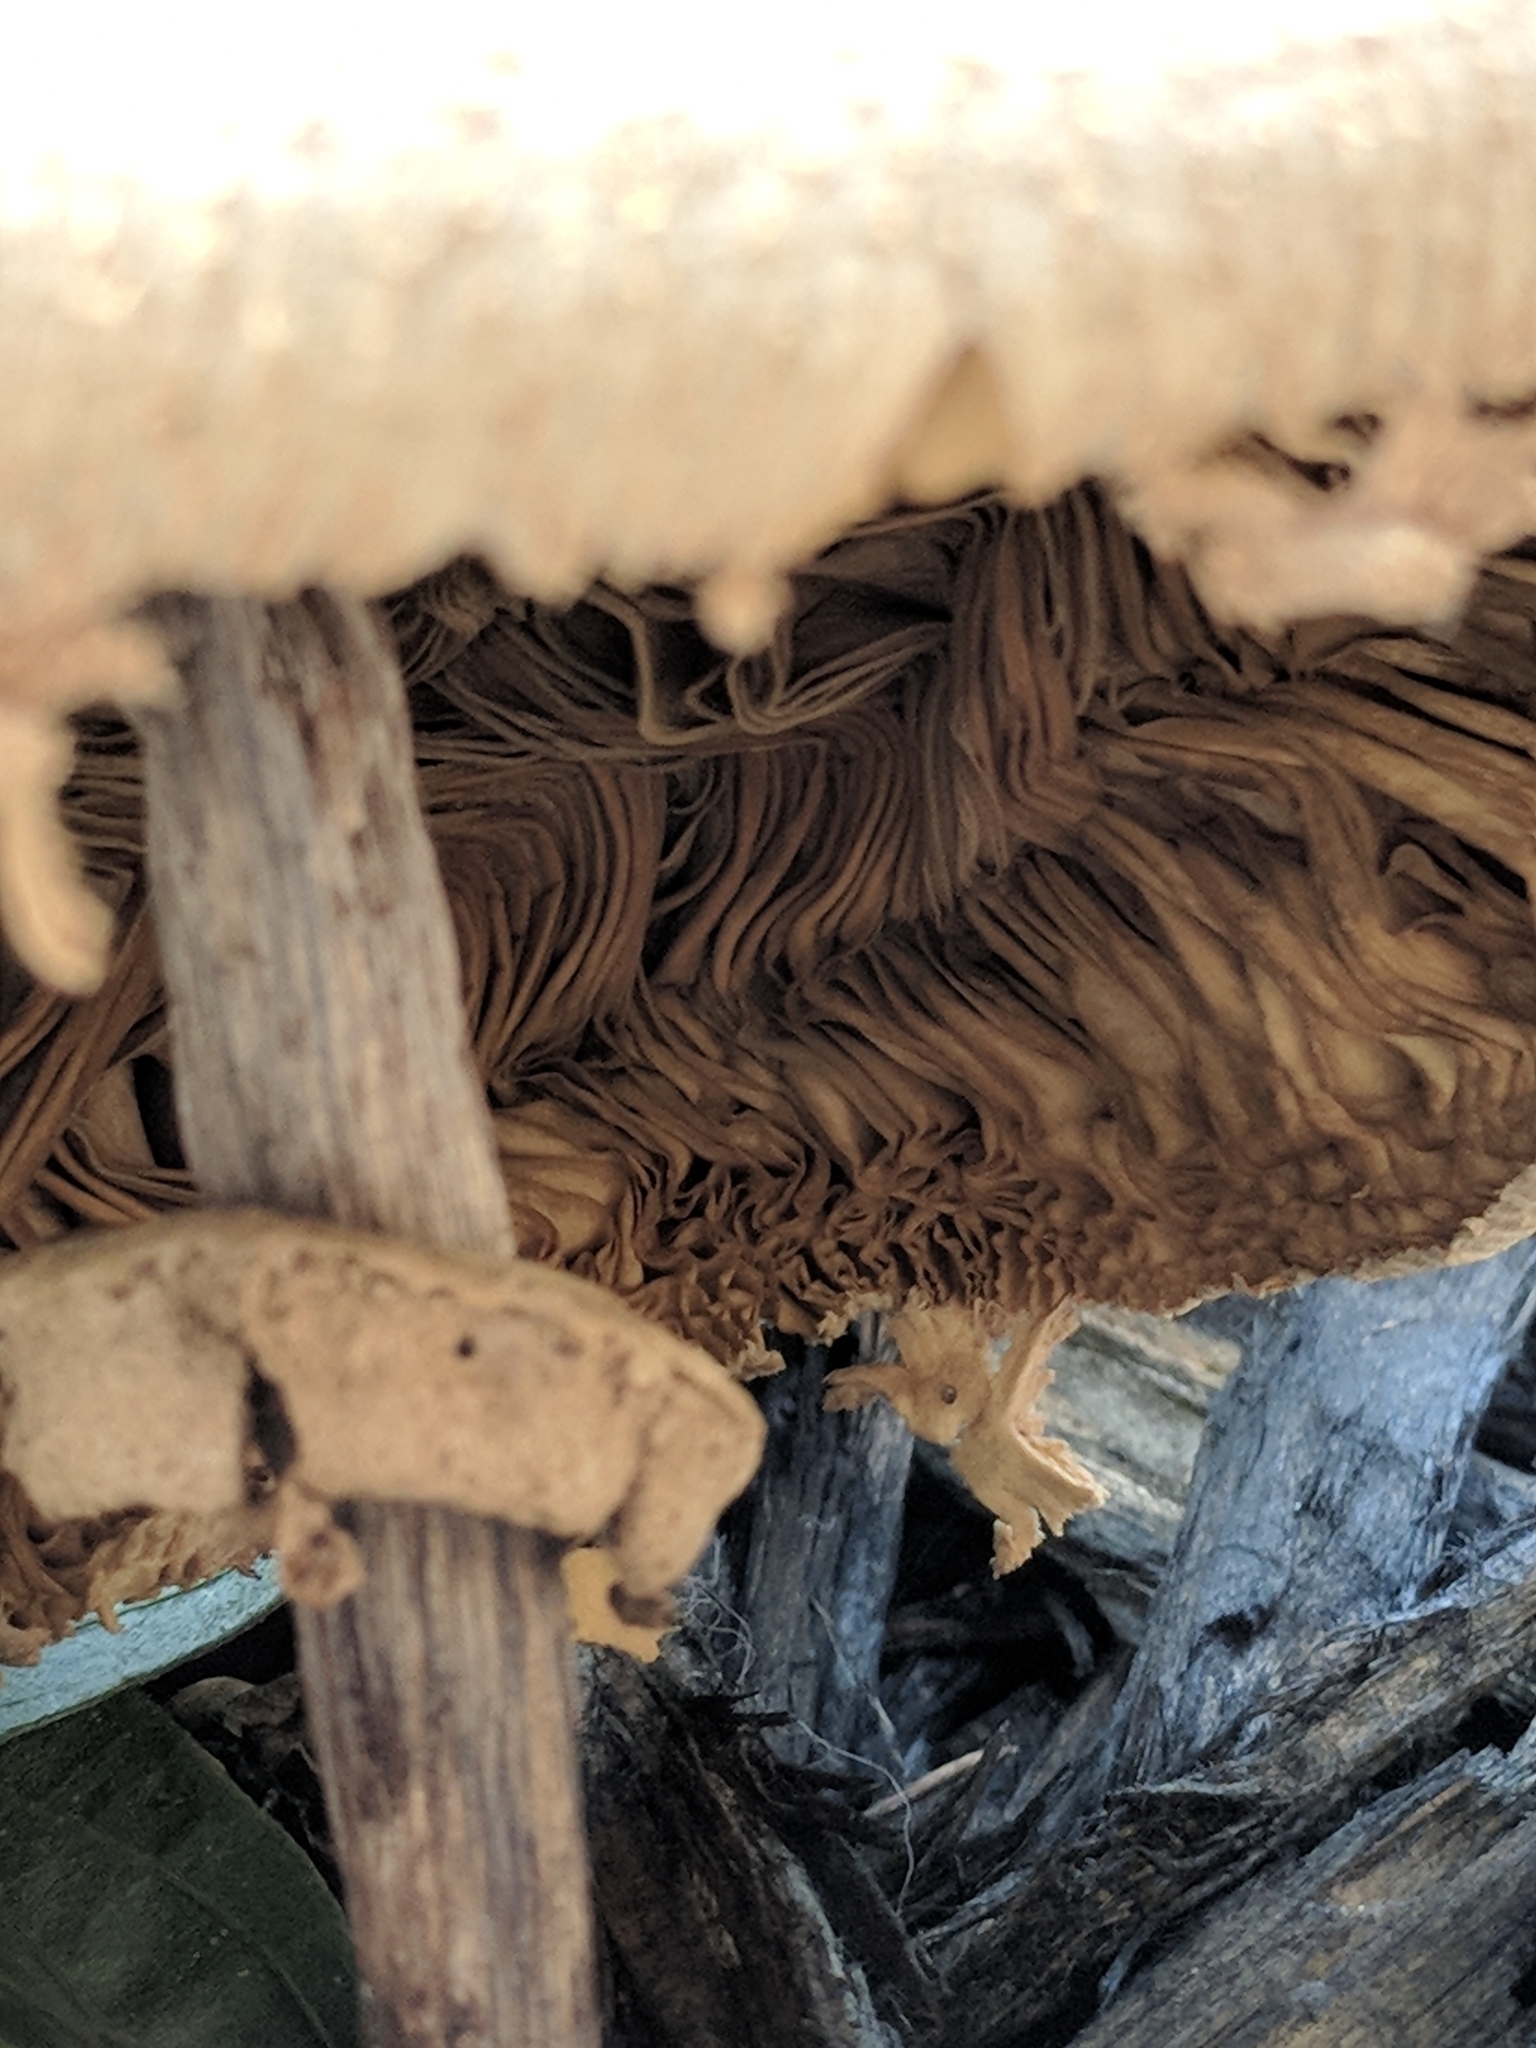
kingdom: Fungi
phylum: Basidiomycota
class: Agaricomycetes
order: Agaricales
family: Agaricaceae
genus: Chlorophyllum
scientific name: Chlorophyllum molybdites
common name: False parasol
